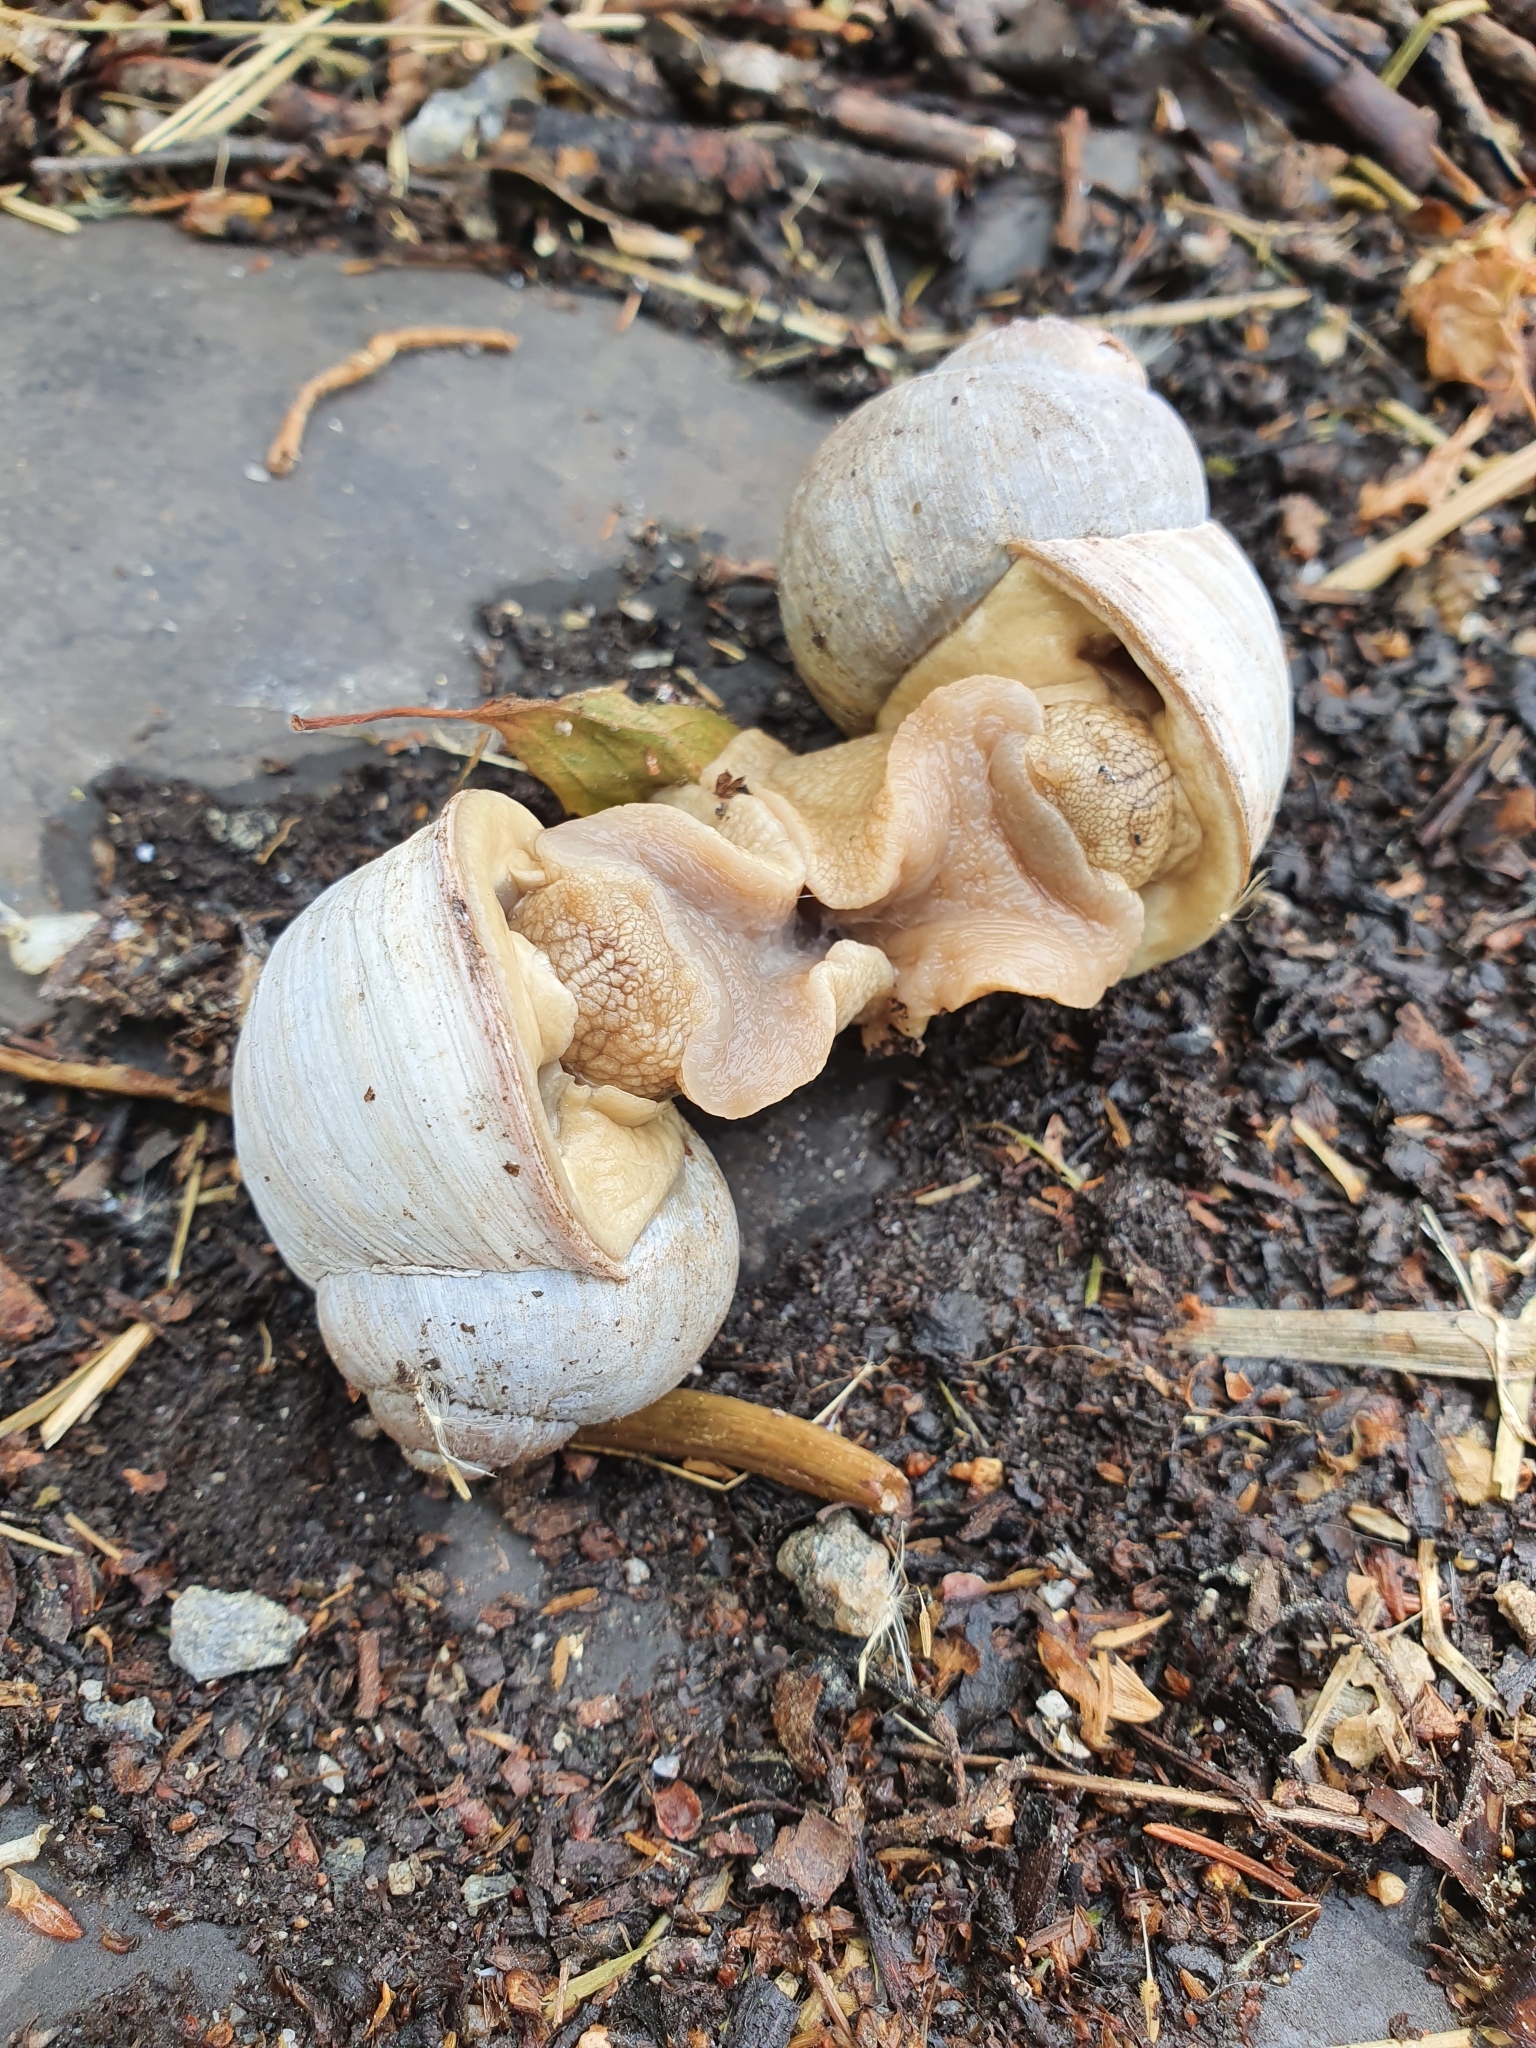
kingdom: Animalia
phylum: Mollusca
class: Gastropoda
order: Stylommatophora
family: Helicidae
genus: Helix
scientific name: Helix pomatia
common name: Roman snail
